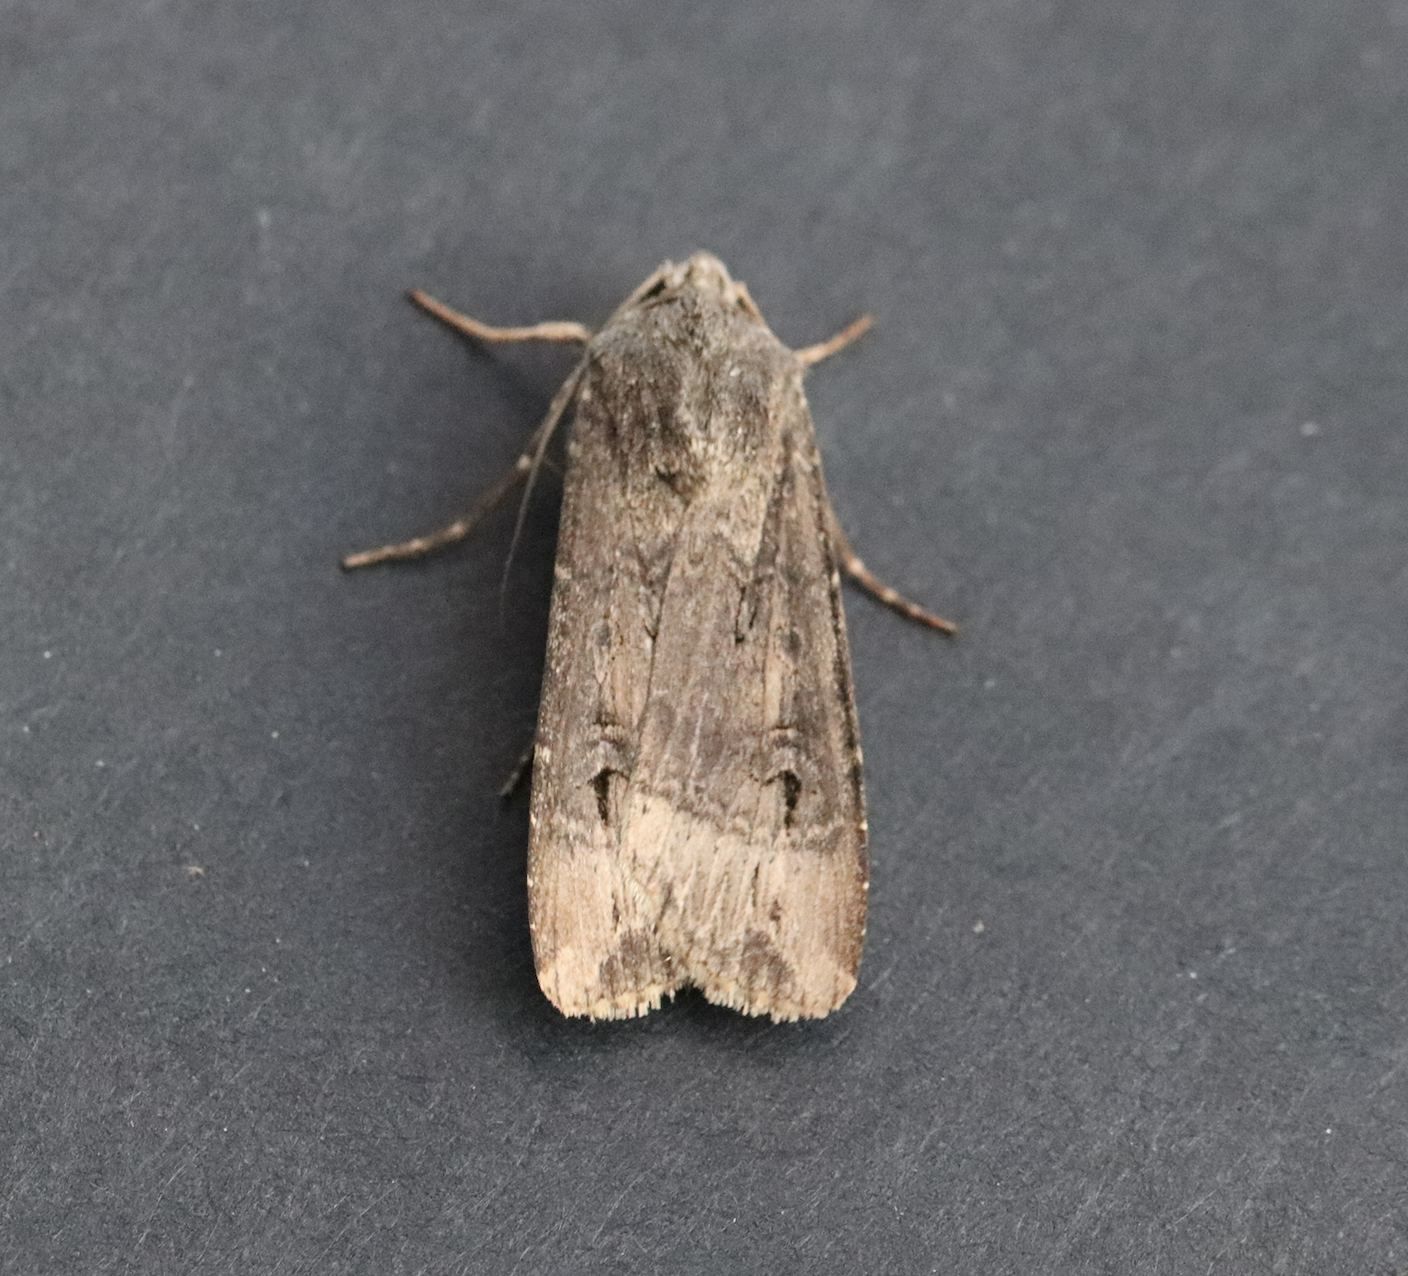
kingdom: Animalia
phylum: Arthropoda
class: Insecta
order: Lepidoptera
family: Noctuidae
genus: Agrotis
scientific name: Agrotis ipsilon
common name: Dark sword-grass
